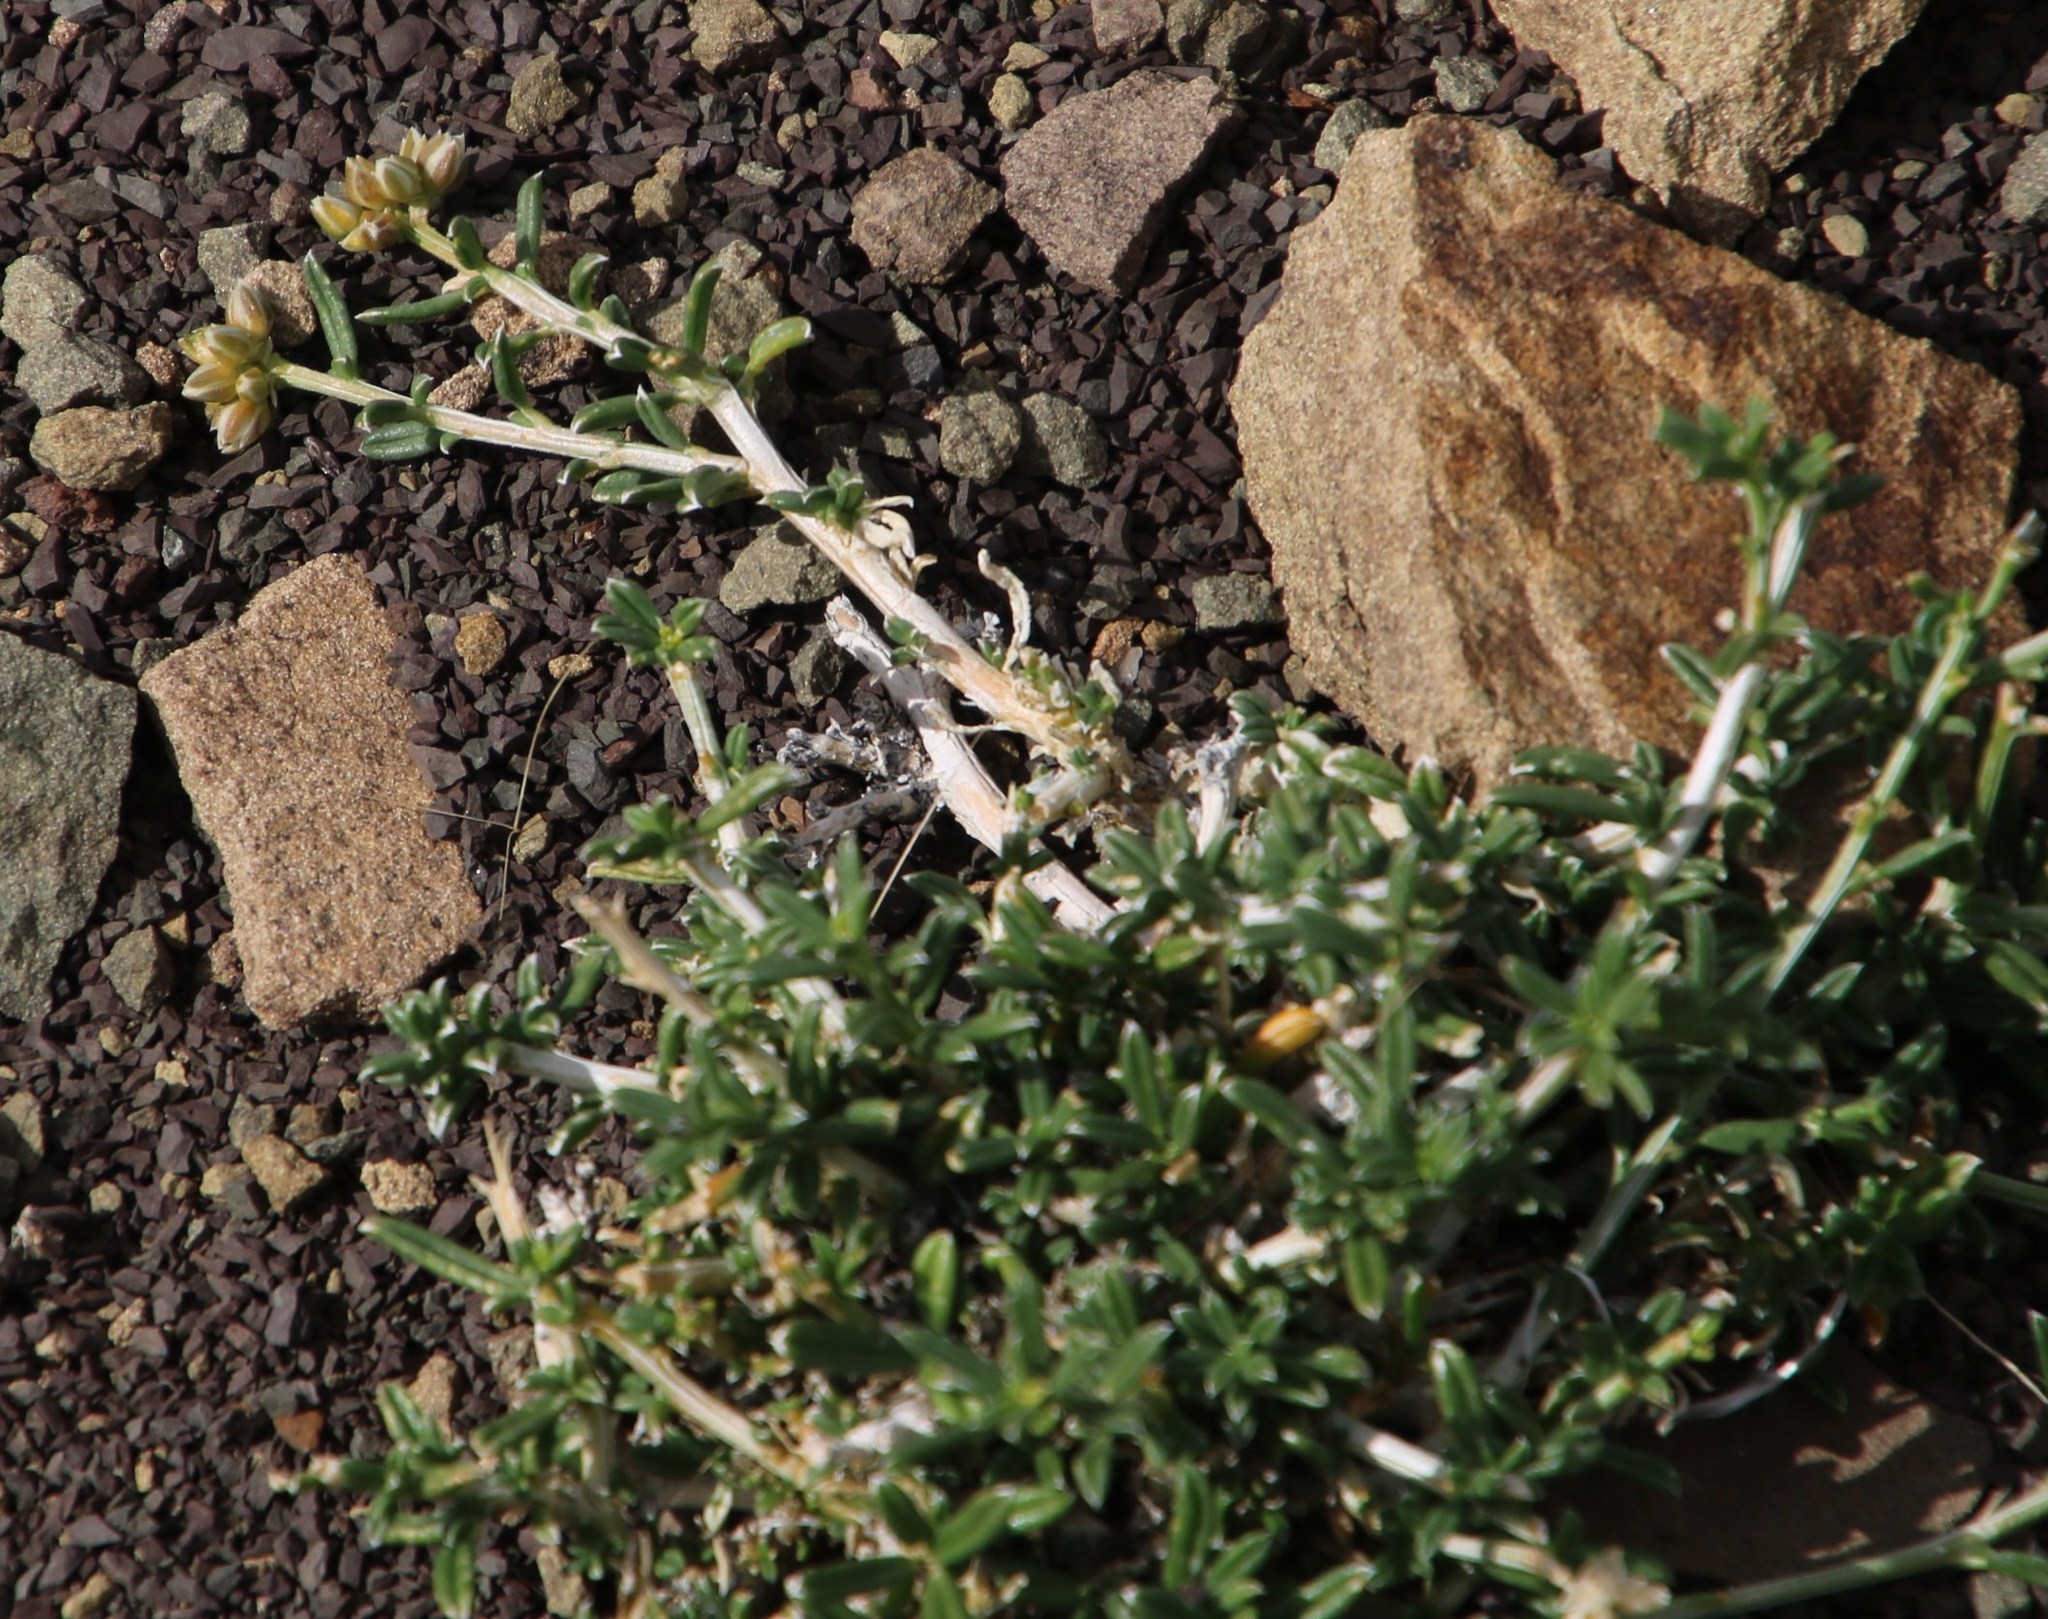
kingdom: Plantae
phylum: Tracheophyta
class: Magnoliopsida
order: Caryophyllales
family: Limeaceae
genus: Limeum
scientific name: Limeum aethiopicum
